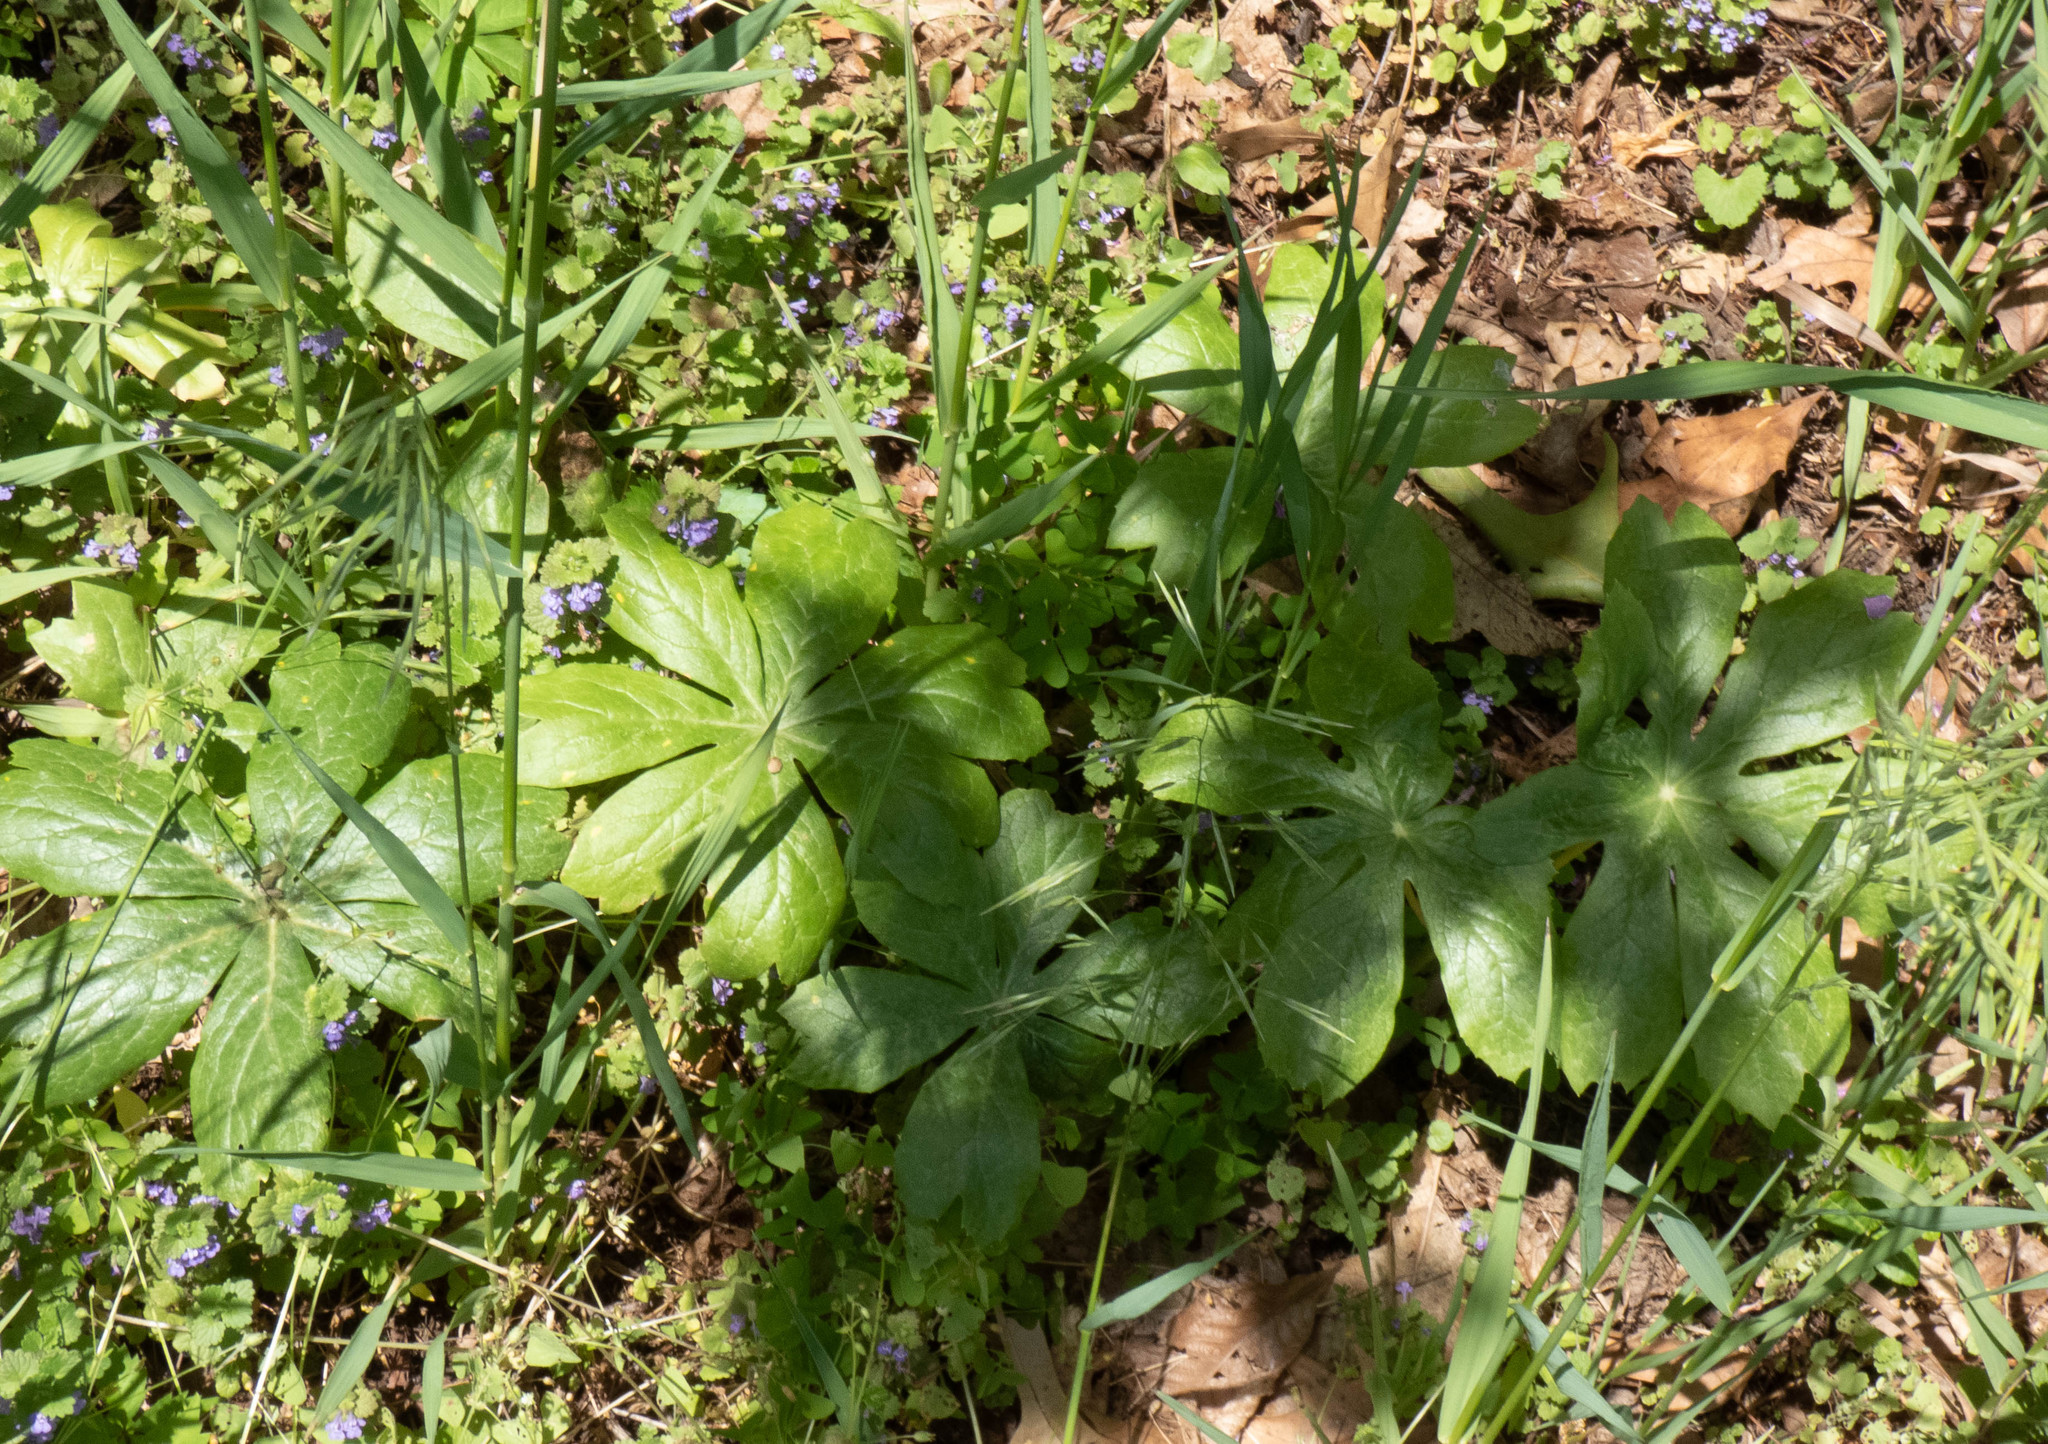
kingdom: Plantae
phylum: Tracheophyta
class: Magnoliopsida
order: Ranunculales
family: Berberidaceae
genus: Podophyllum
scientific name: Podophyllum peltatum
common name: Wild mandrake
